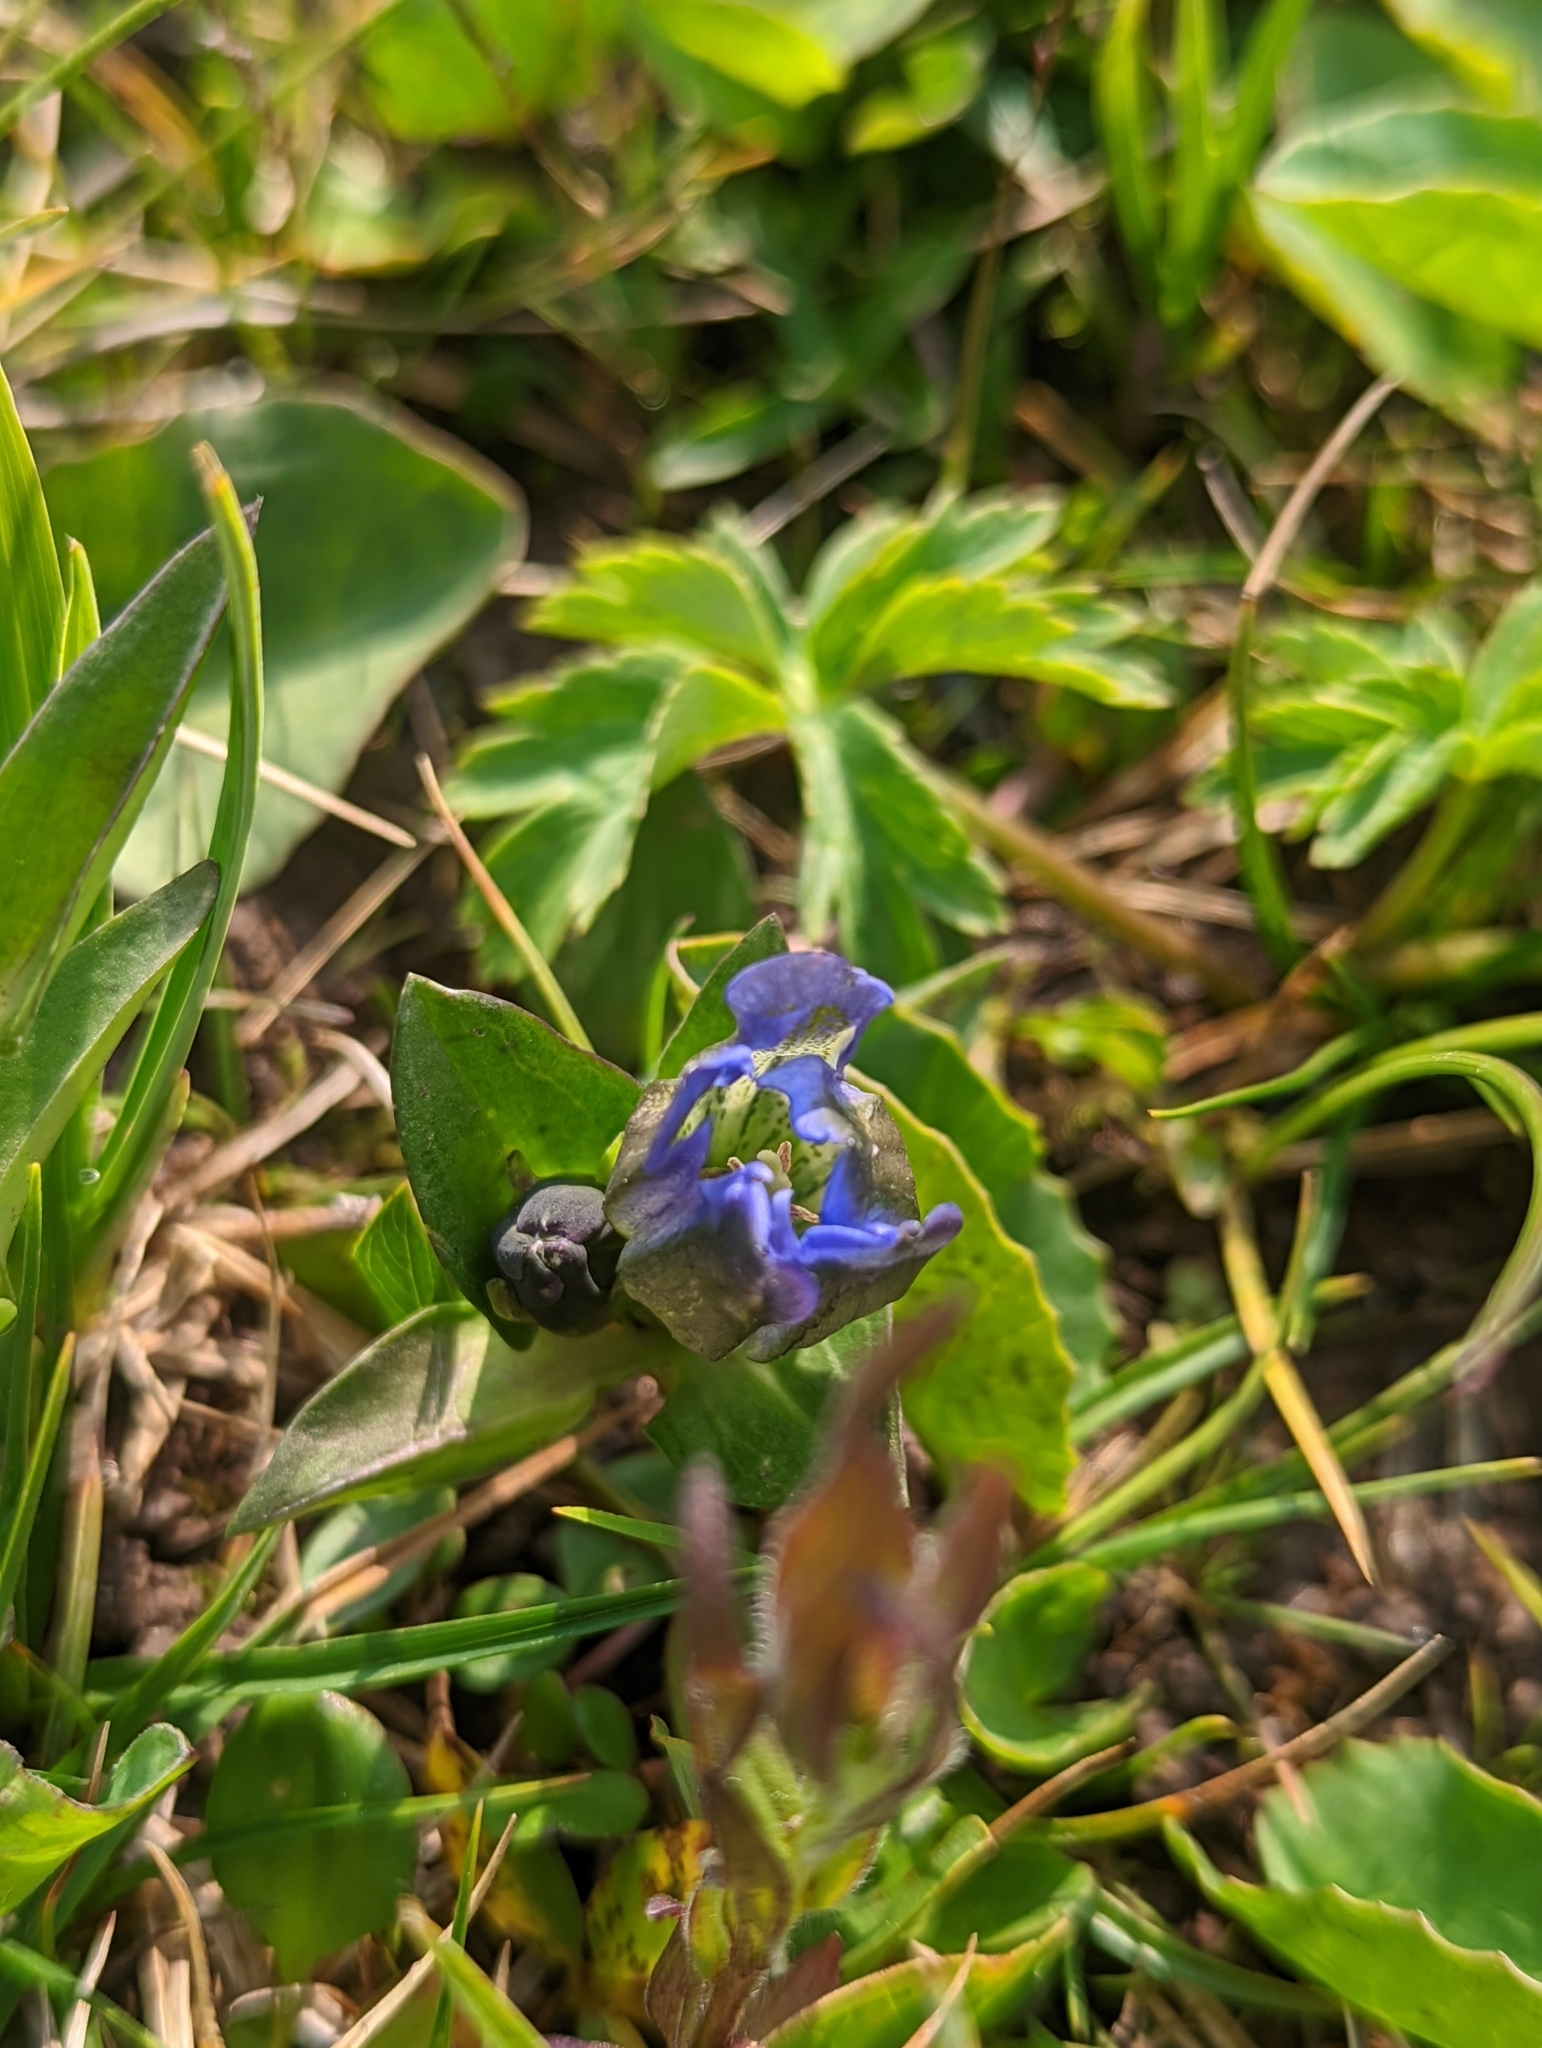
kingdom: Plantae
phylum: Tracheophyta
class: Magnoliopsida
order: Gentianales
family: Gentianaceae
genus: Gentiana
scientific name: Gentiana parryi
